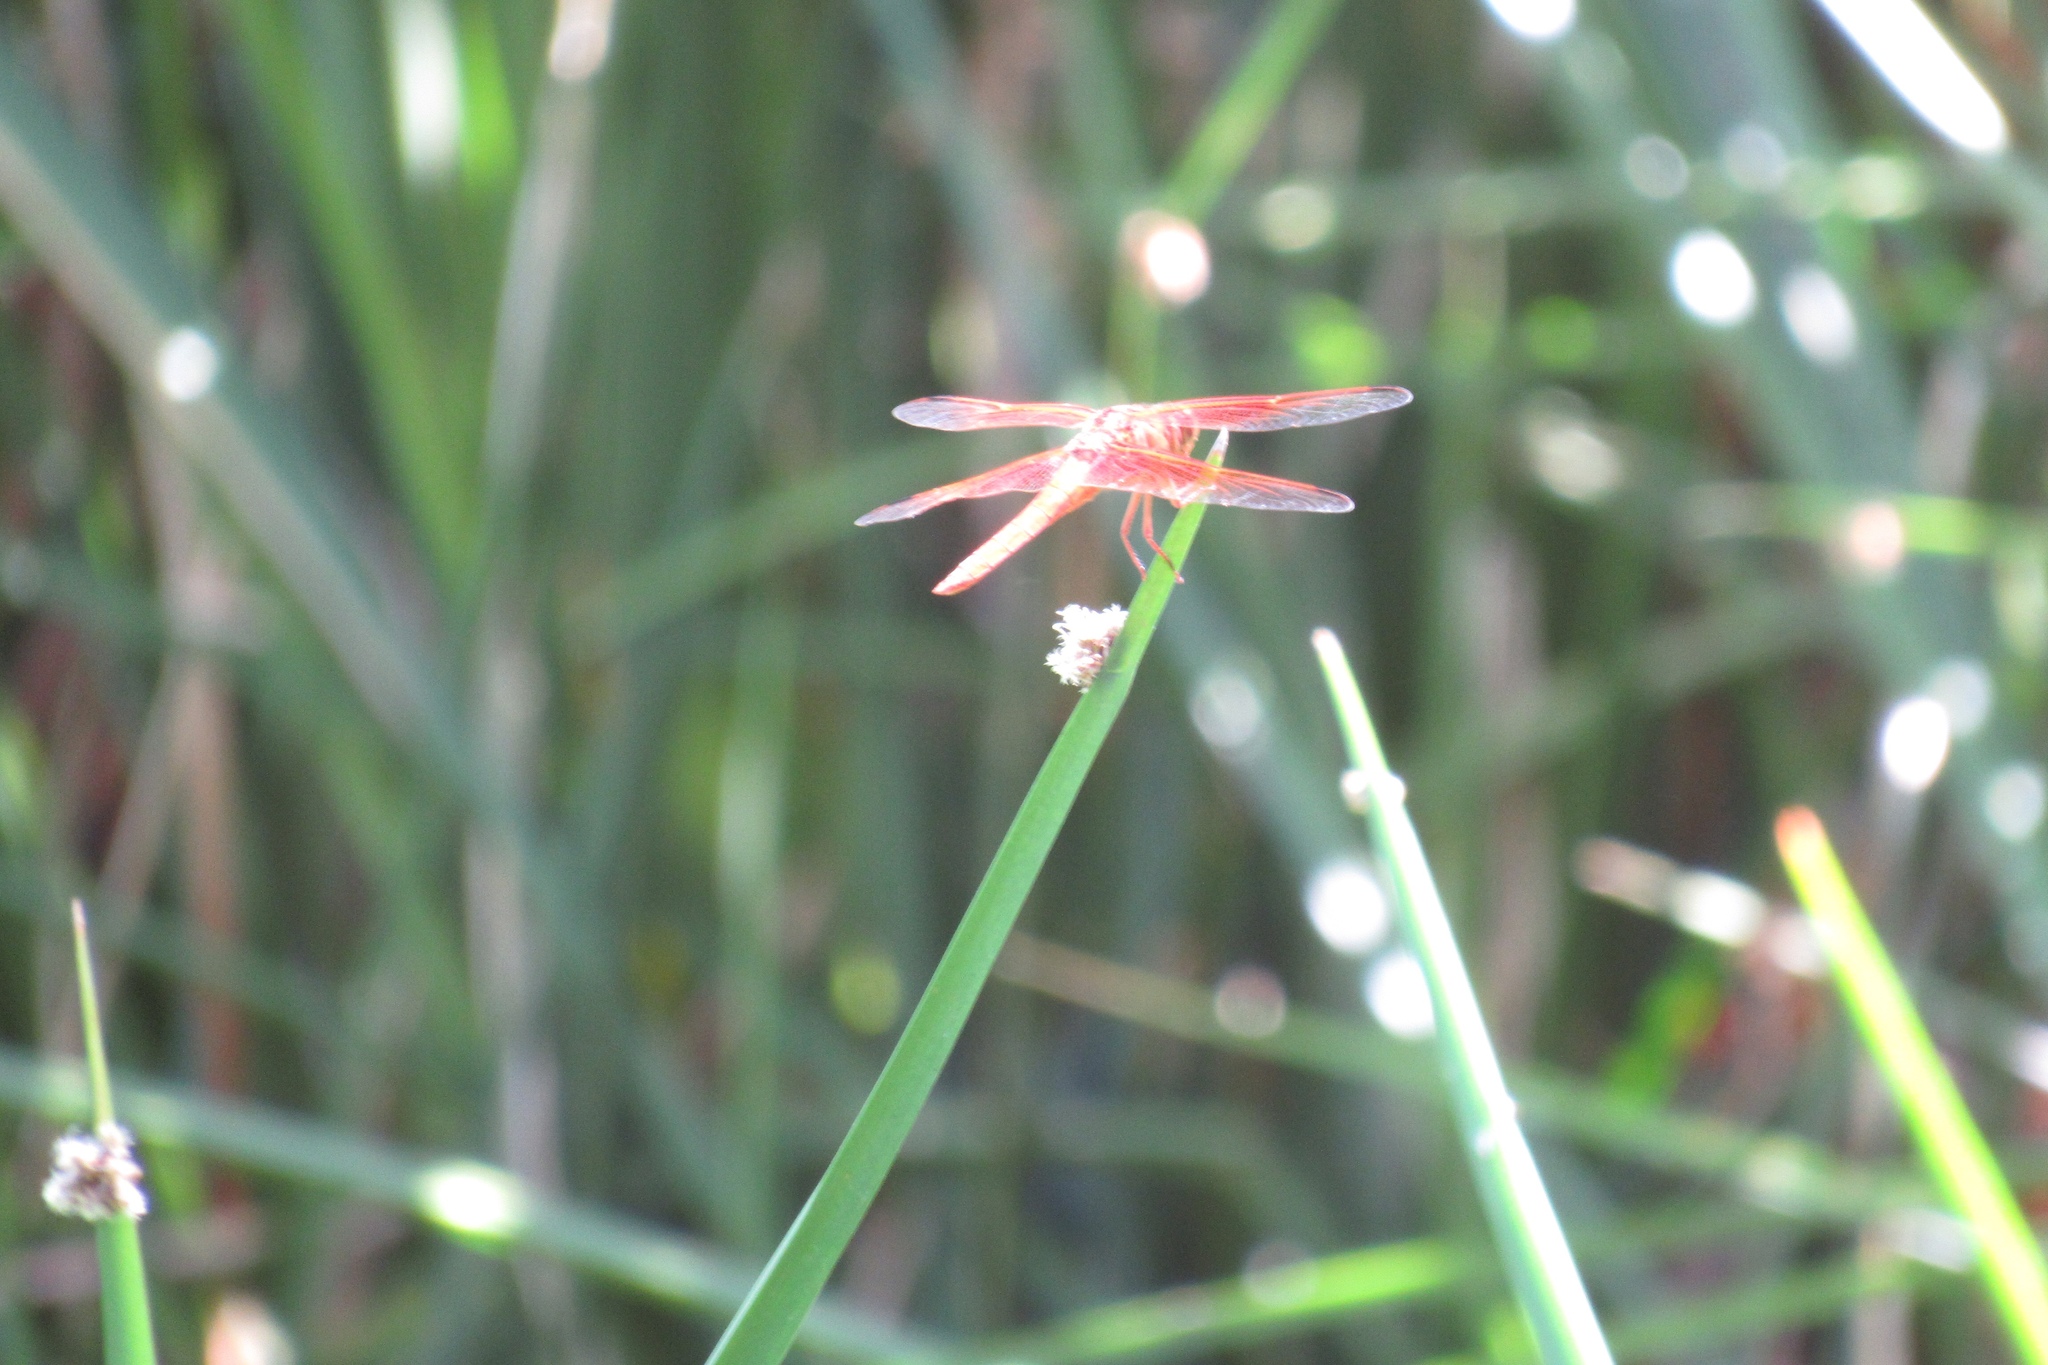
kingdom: Animalia
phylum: Arthropoda
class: Insecta
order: Odonata
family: Libellulidae
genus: Libellula
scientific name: Libellula saturata
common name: Flame skimmer
